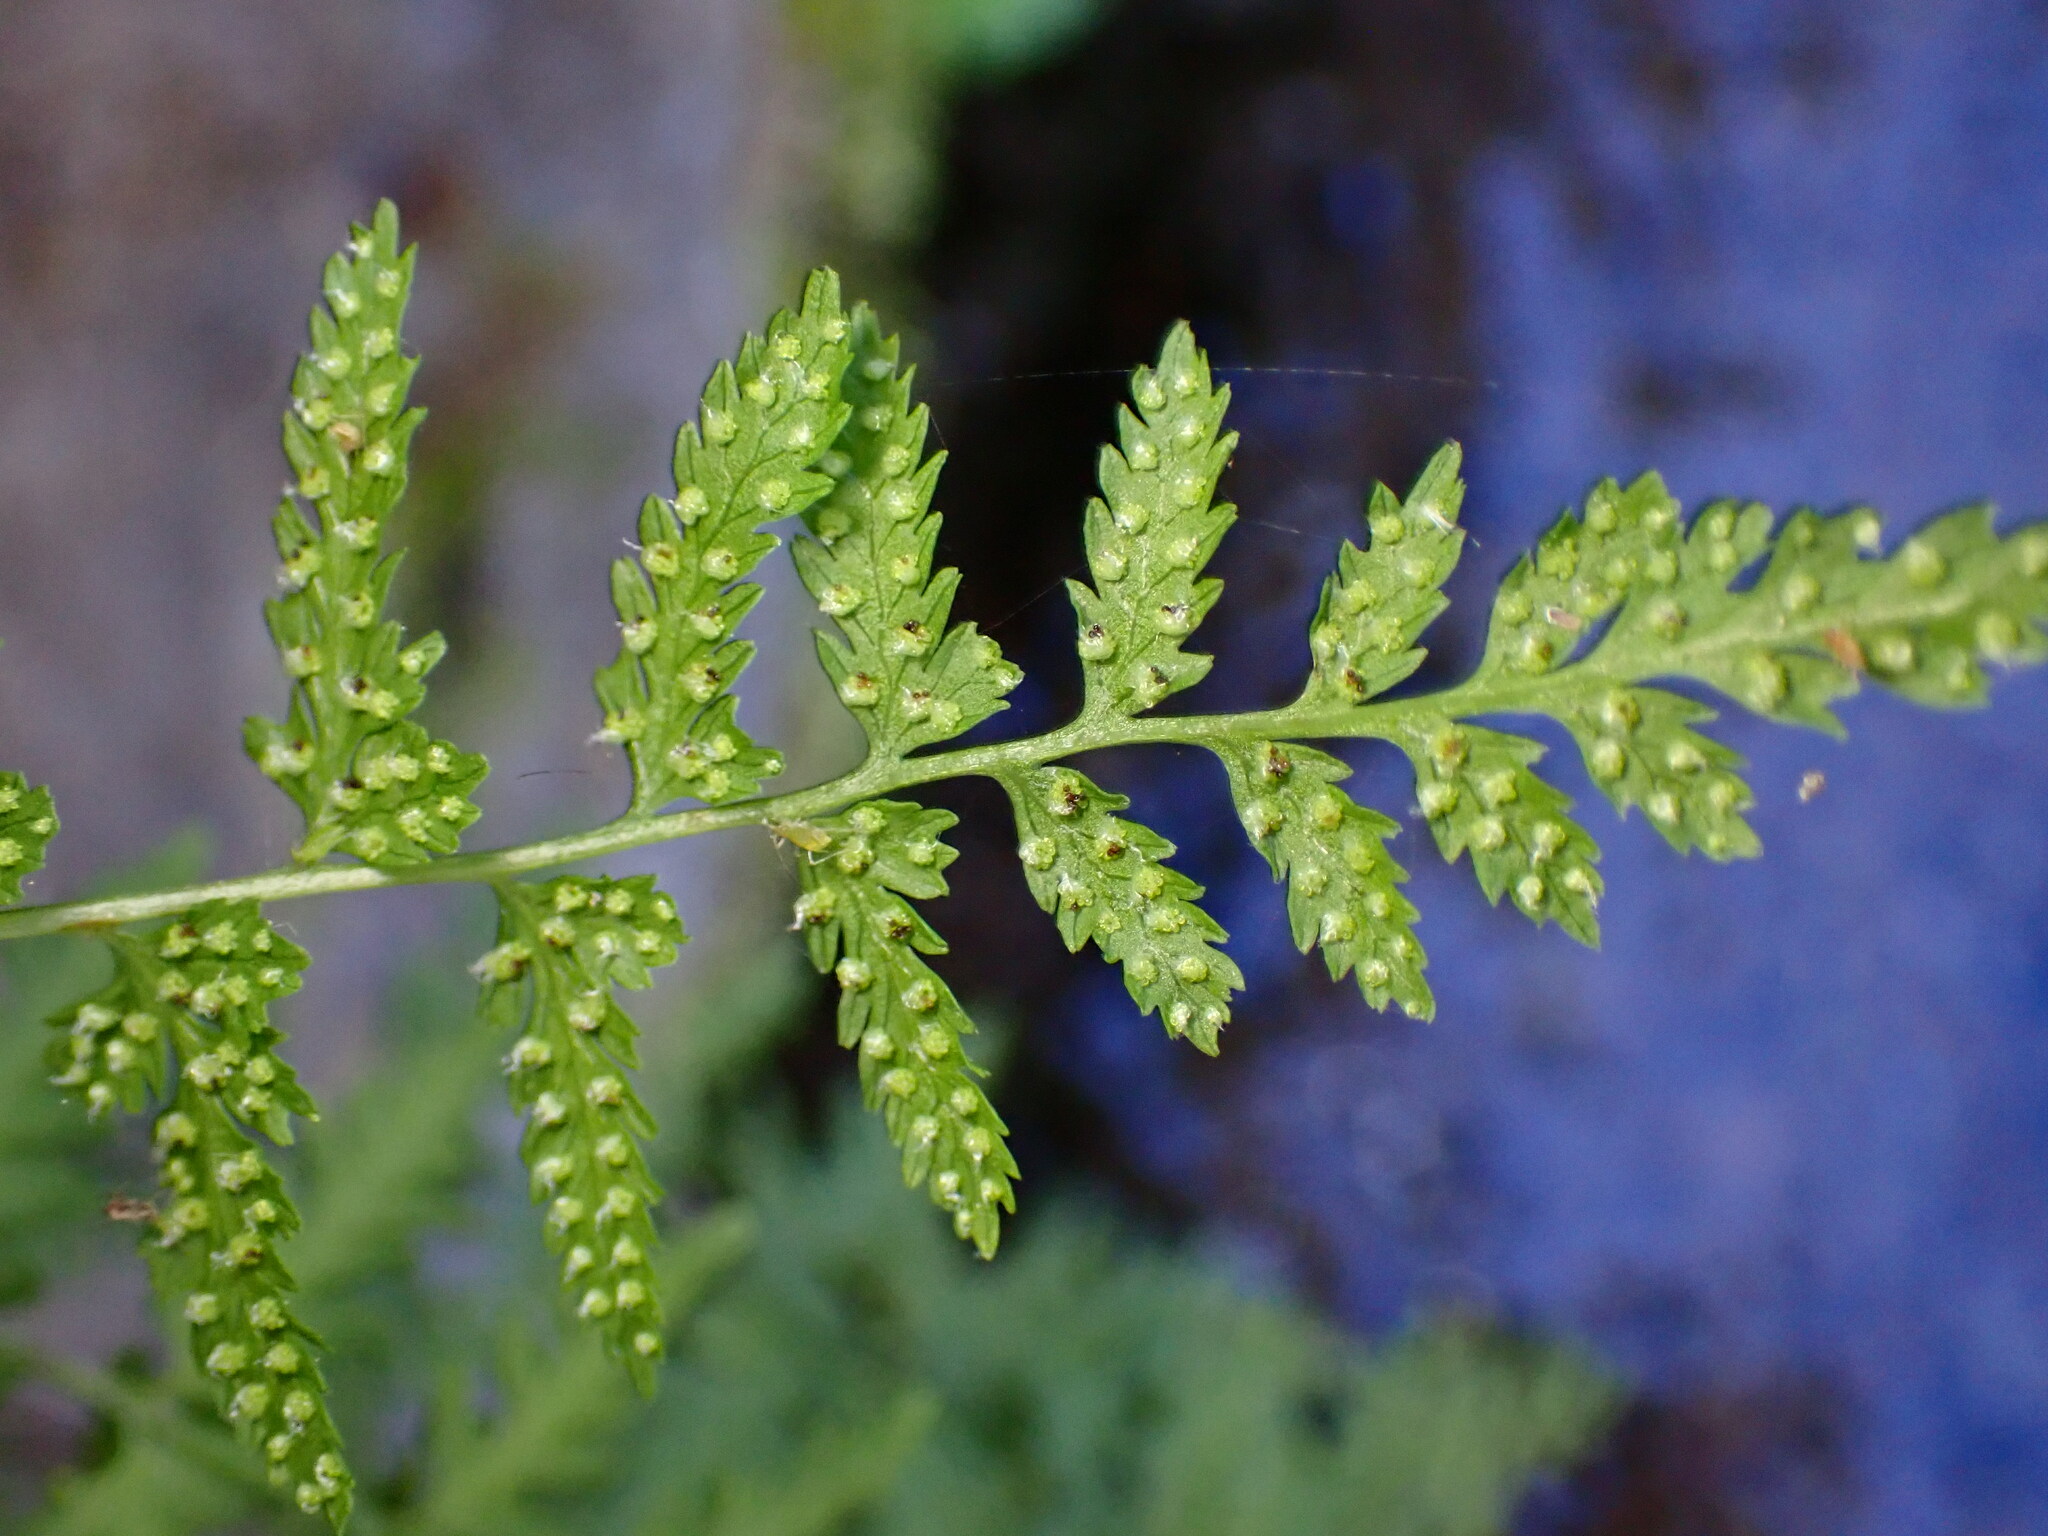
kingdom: Plantae
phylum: Tracheophyta
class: Polypodiopsida
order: Polypodiales
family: Cystopteridaceae
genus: Cystopteris
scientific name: Cystopteris fragilis
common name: Brittle bladder fern
